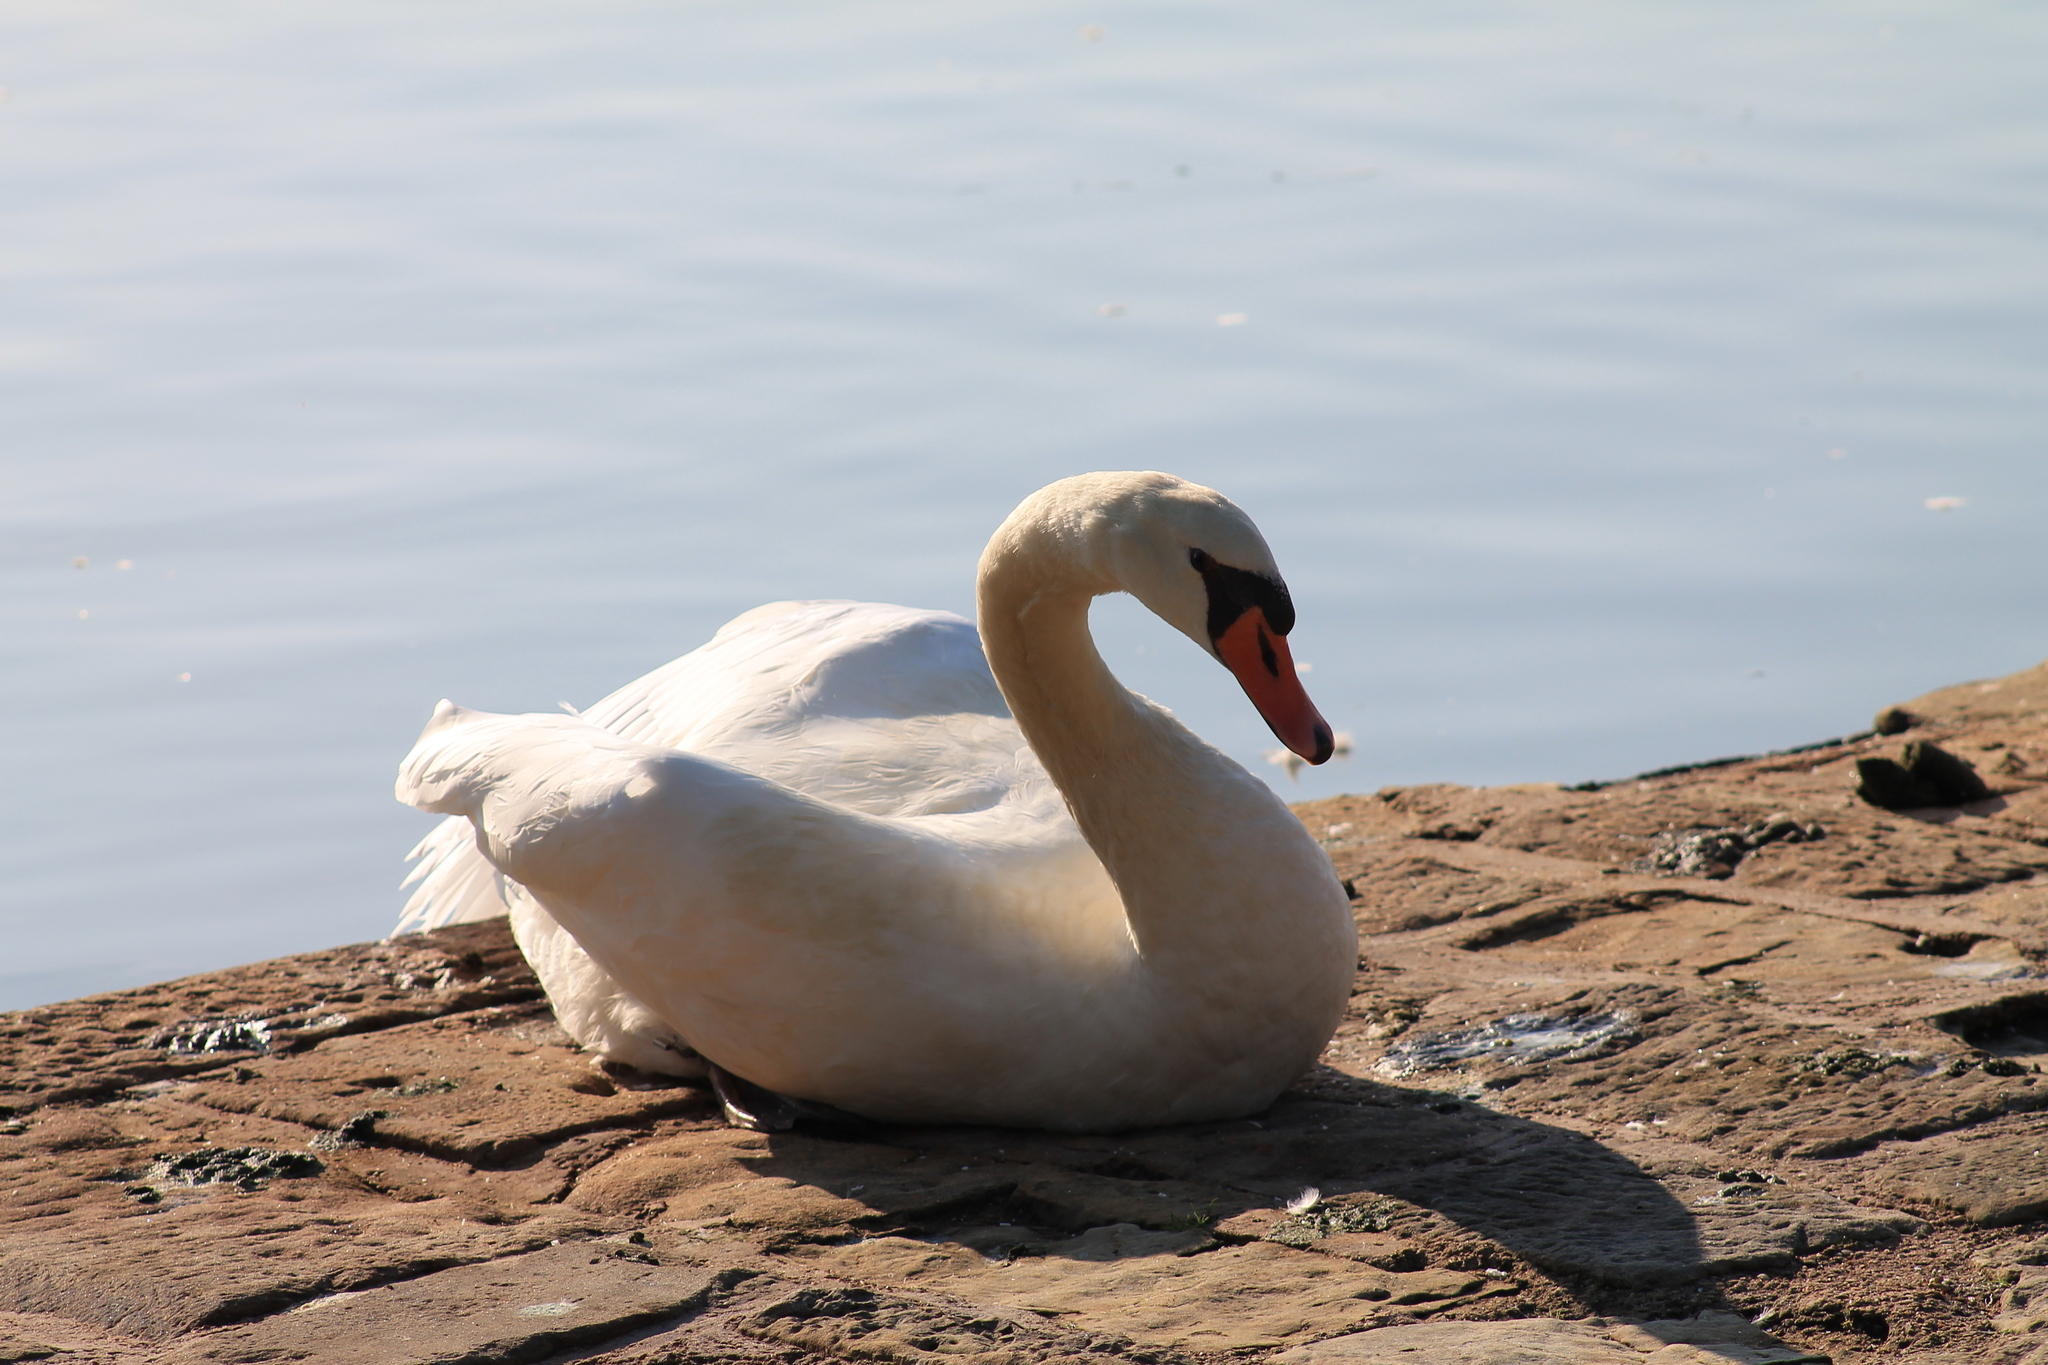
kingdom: Animalia
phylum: Chordata
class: Aves
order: Anseriformes
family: Anatidae
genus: Cygnus
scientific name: Cygnus olor
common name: Mute swan
